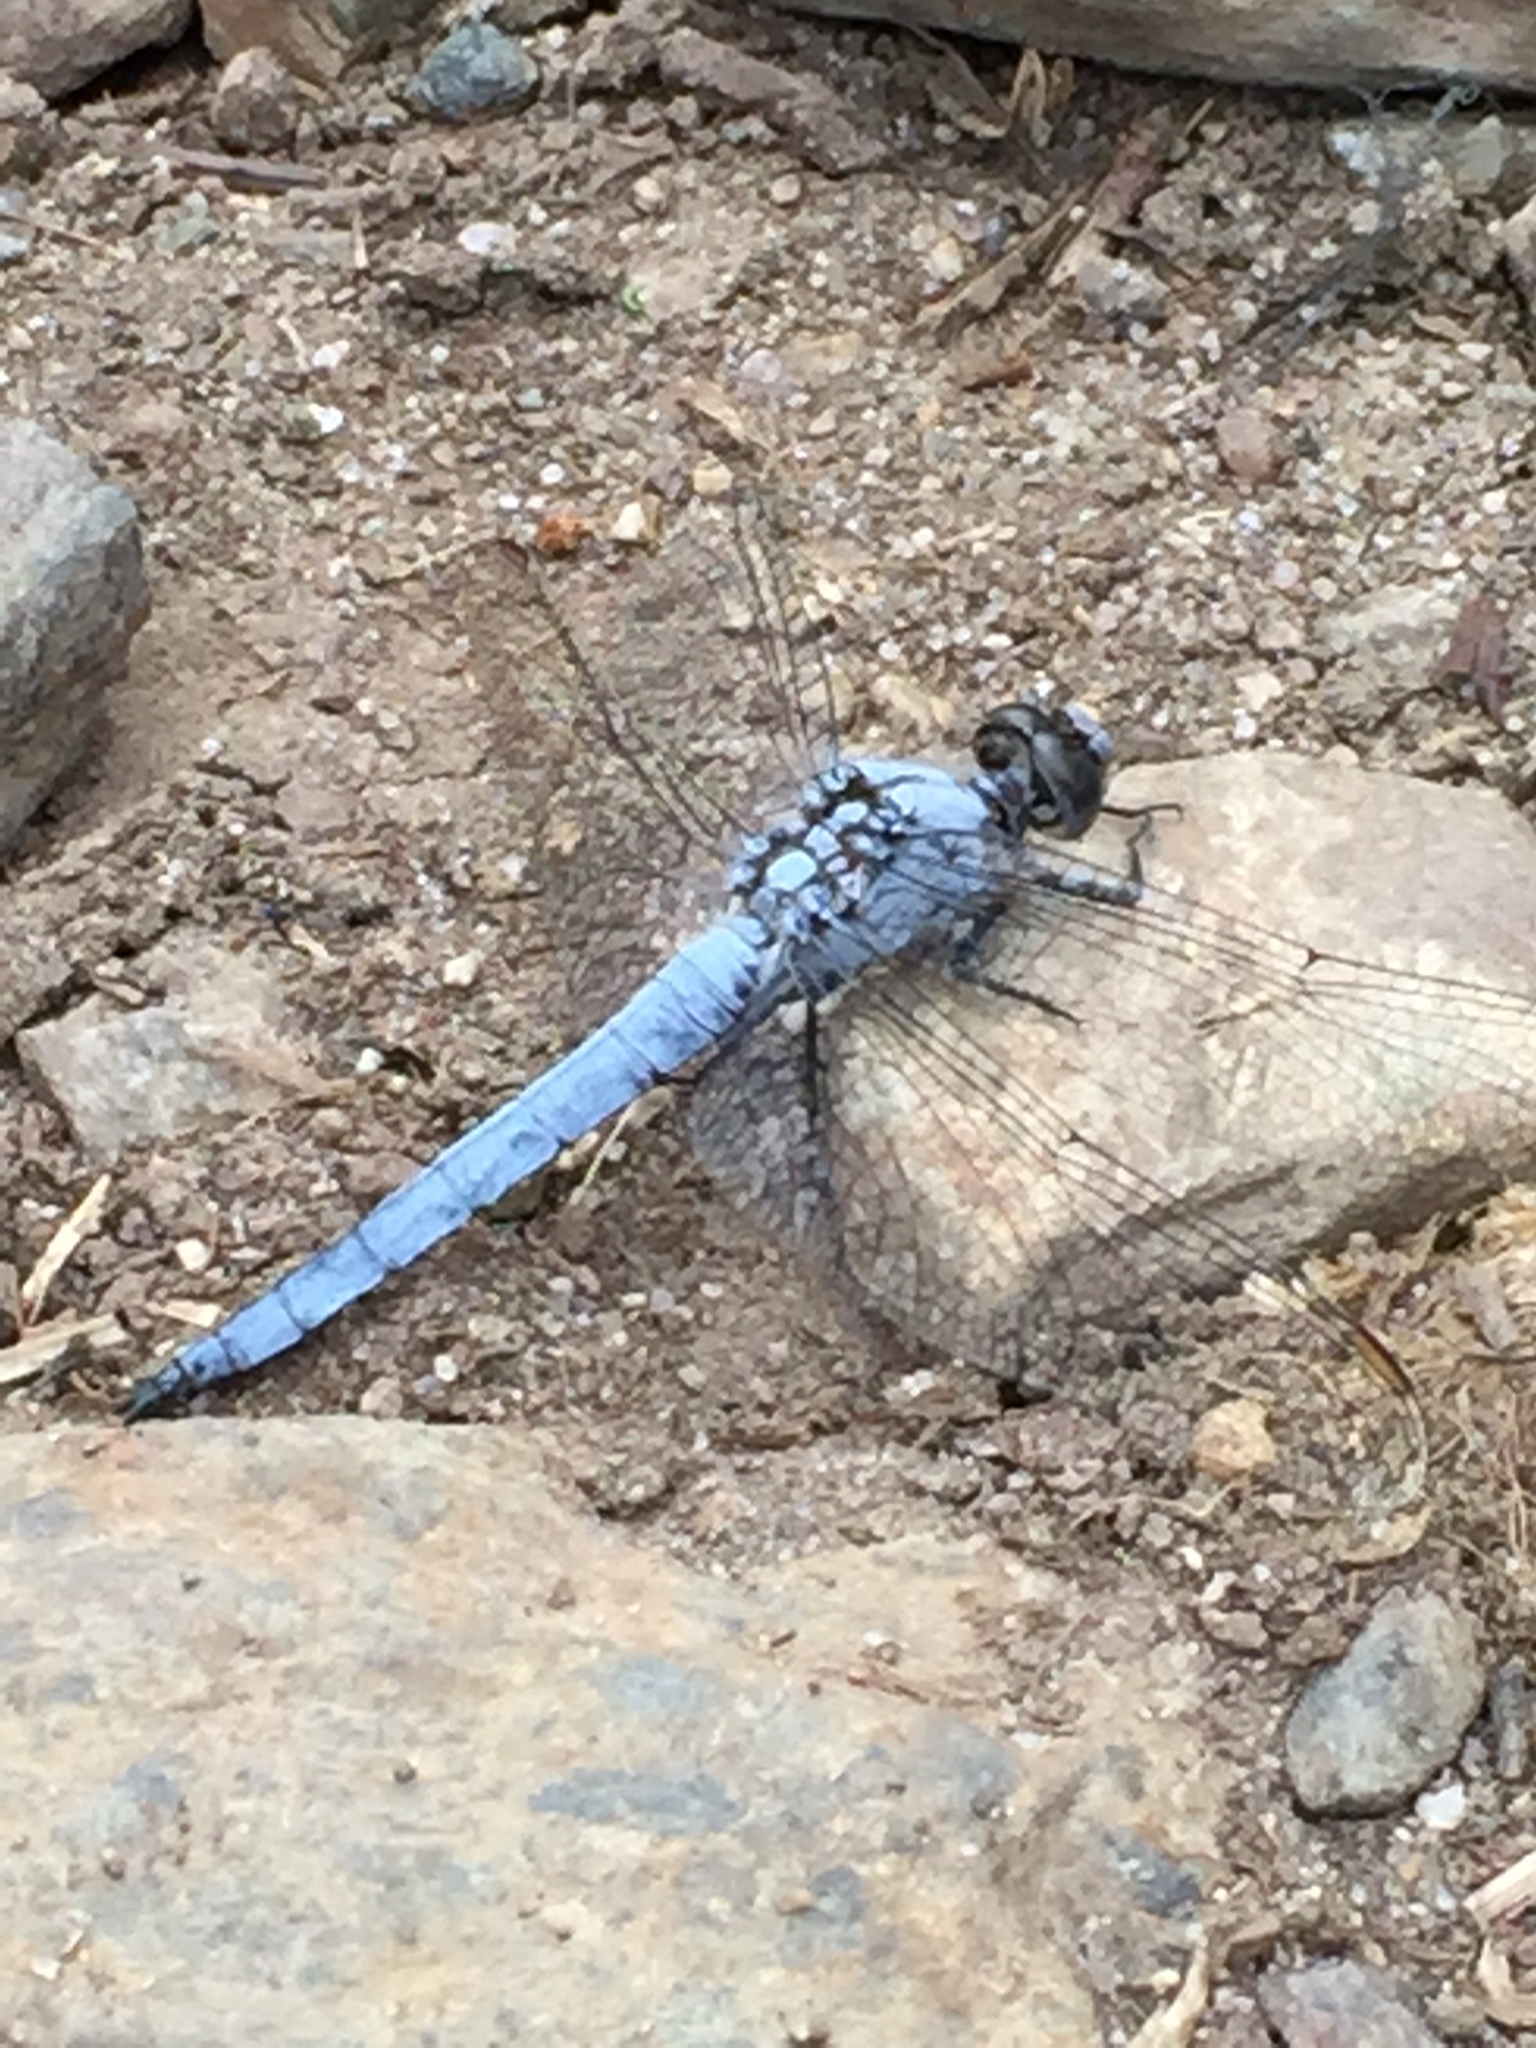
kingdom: Animalia
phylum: Arthropoda
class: Insecta
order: Odonata
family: Libellulidae
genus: Orthetrum
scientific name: Orthetrum brunneum
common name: Southern skimmer
